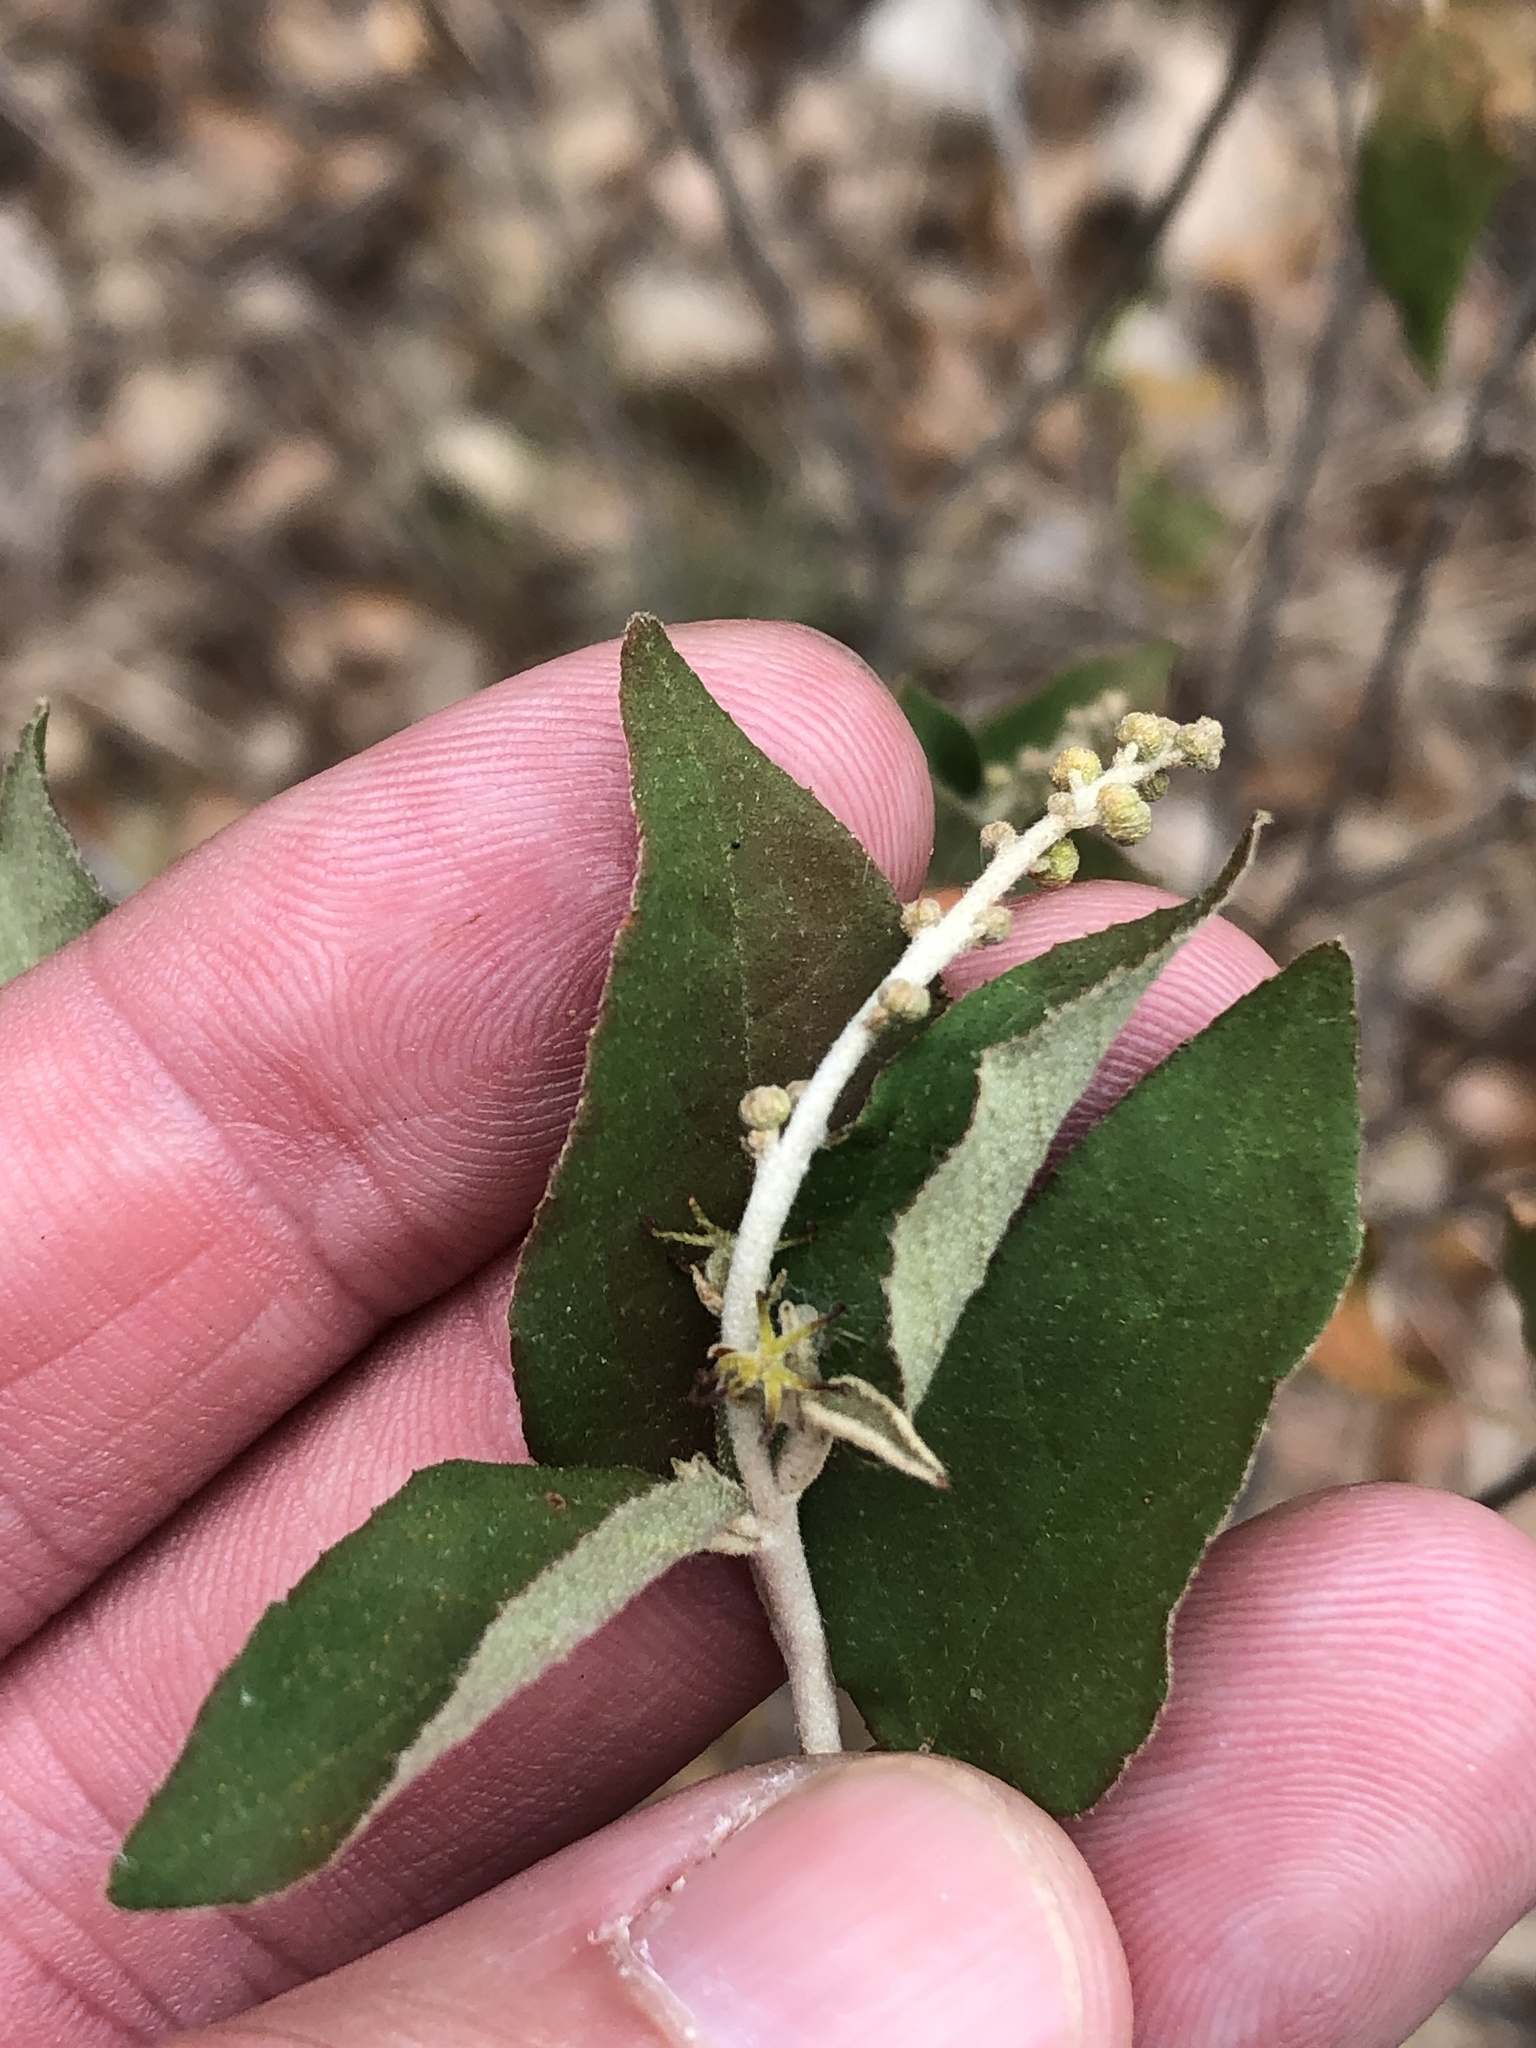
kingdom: Plantae
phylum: Tracheophyta
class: Magnoliopsida
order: Malpighiales
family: Euphorbiaceae
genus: Croton
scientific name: Croton fruticulosus
